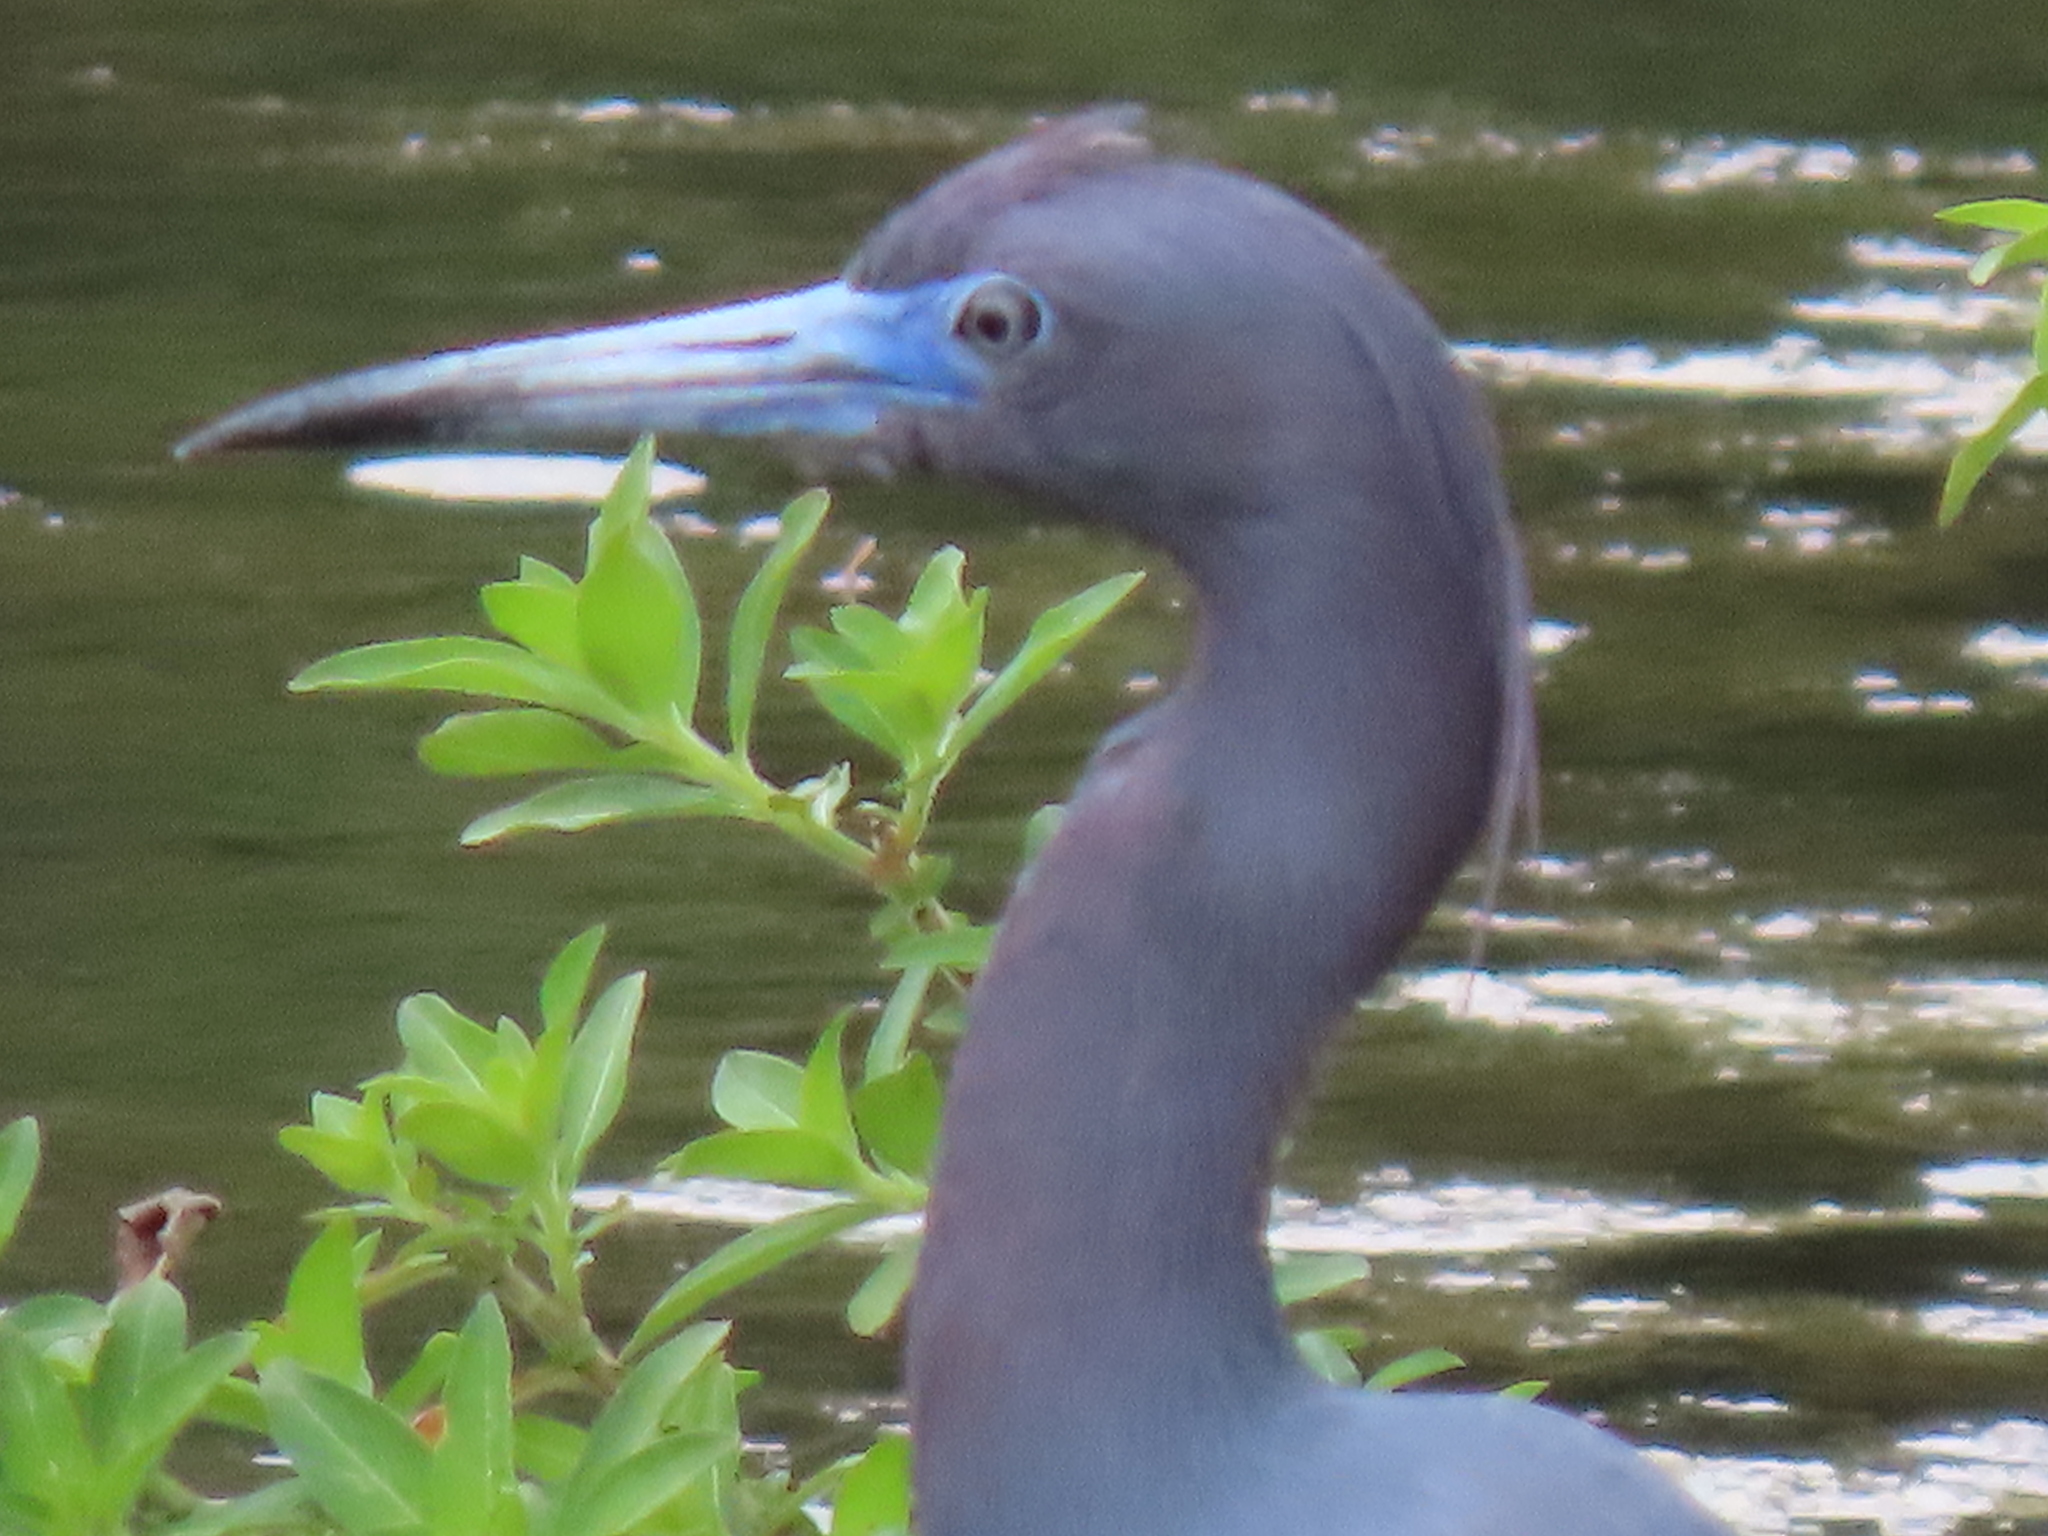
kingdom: Animalia
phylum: Chordata
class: Aves
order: Pelecaniformes
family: Ardeidae
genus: Egretta
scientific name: Egretta caerulea
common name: Little blue heron
